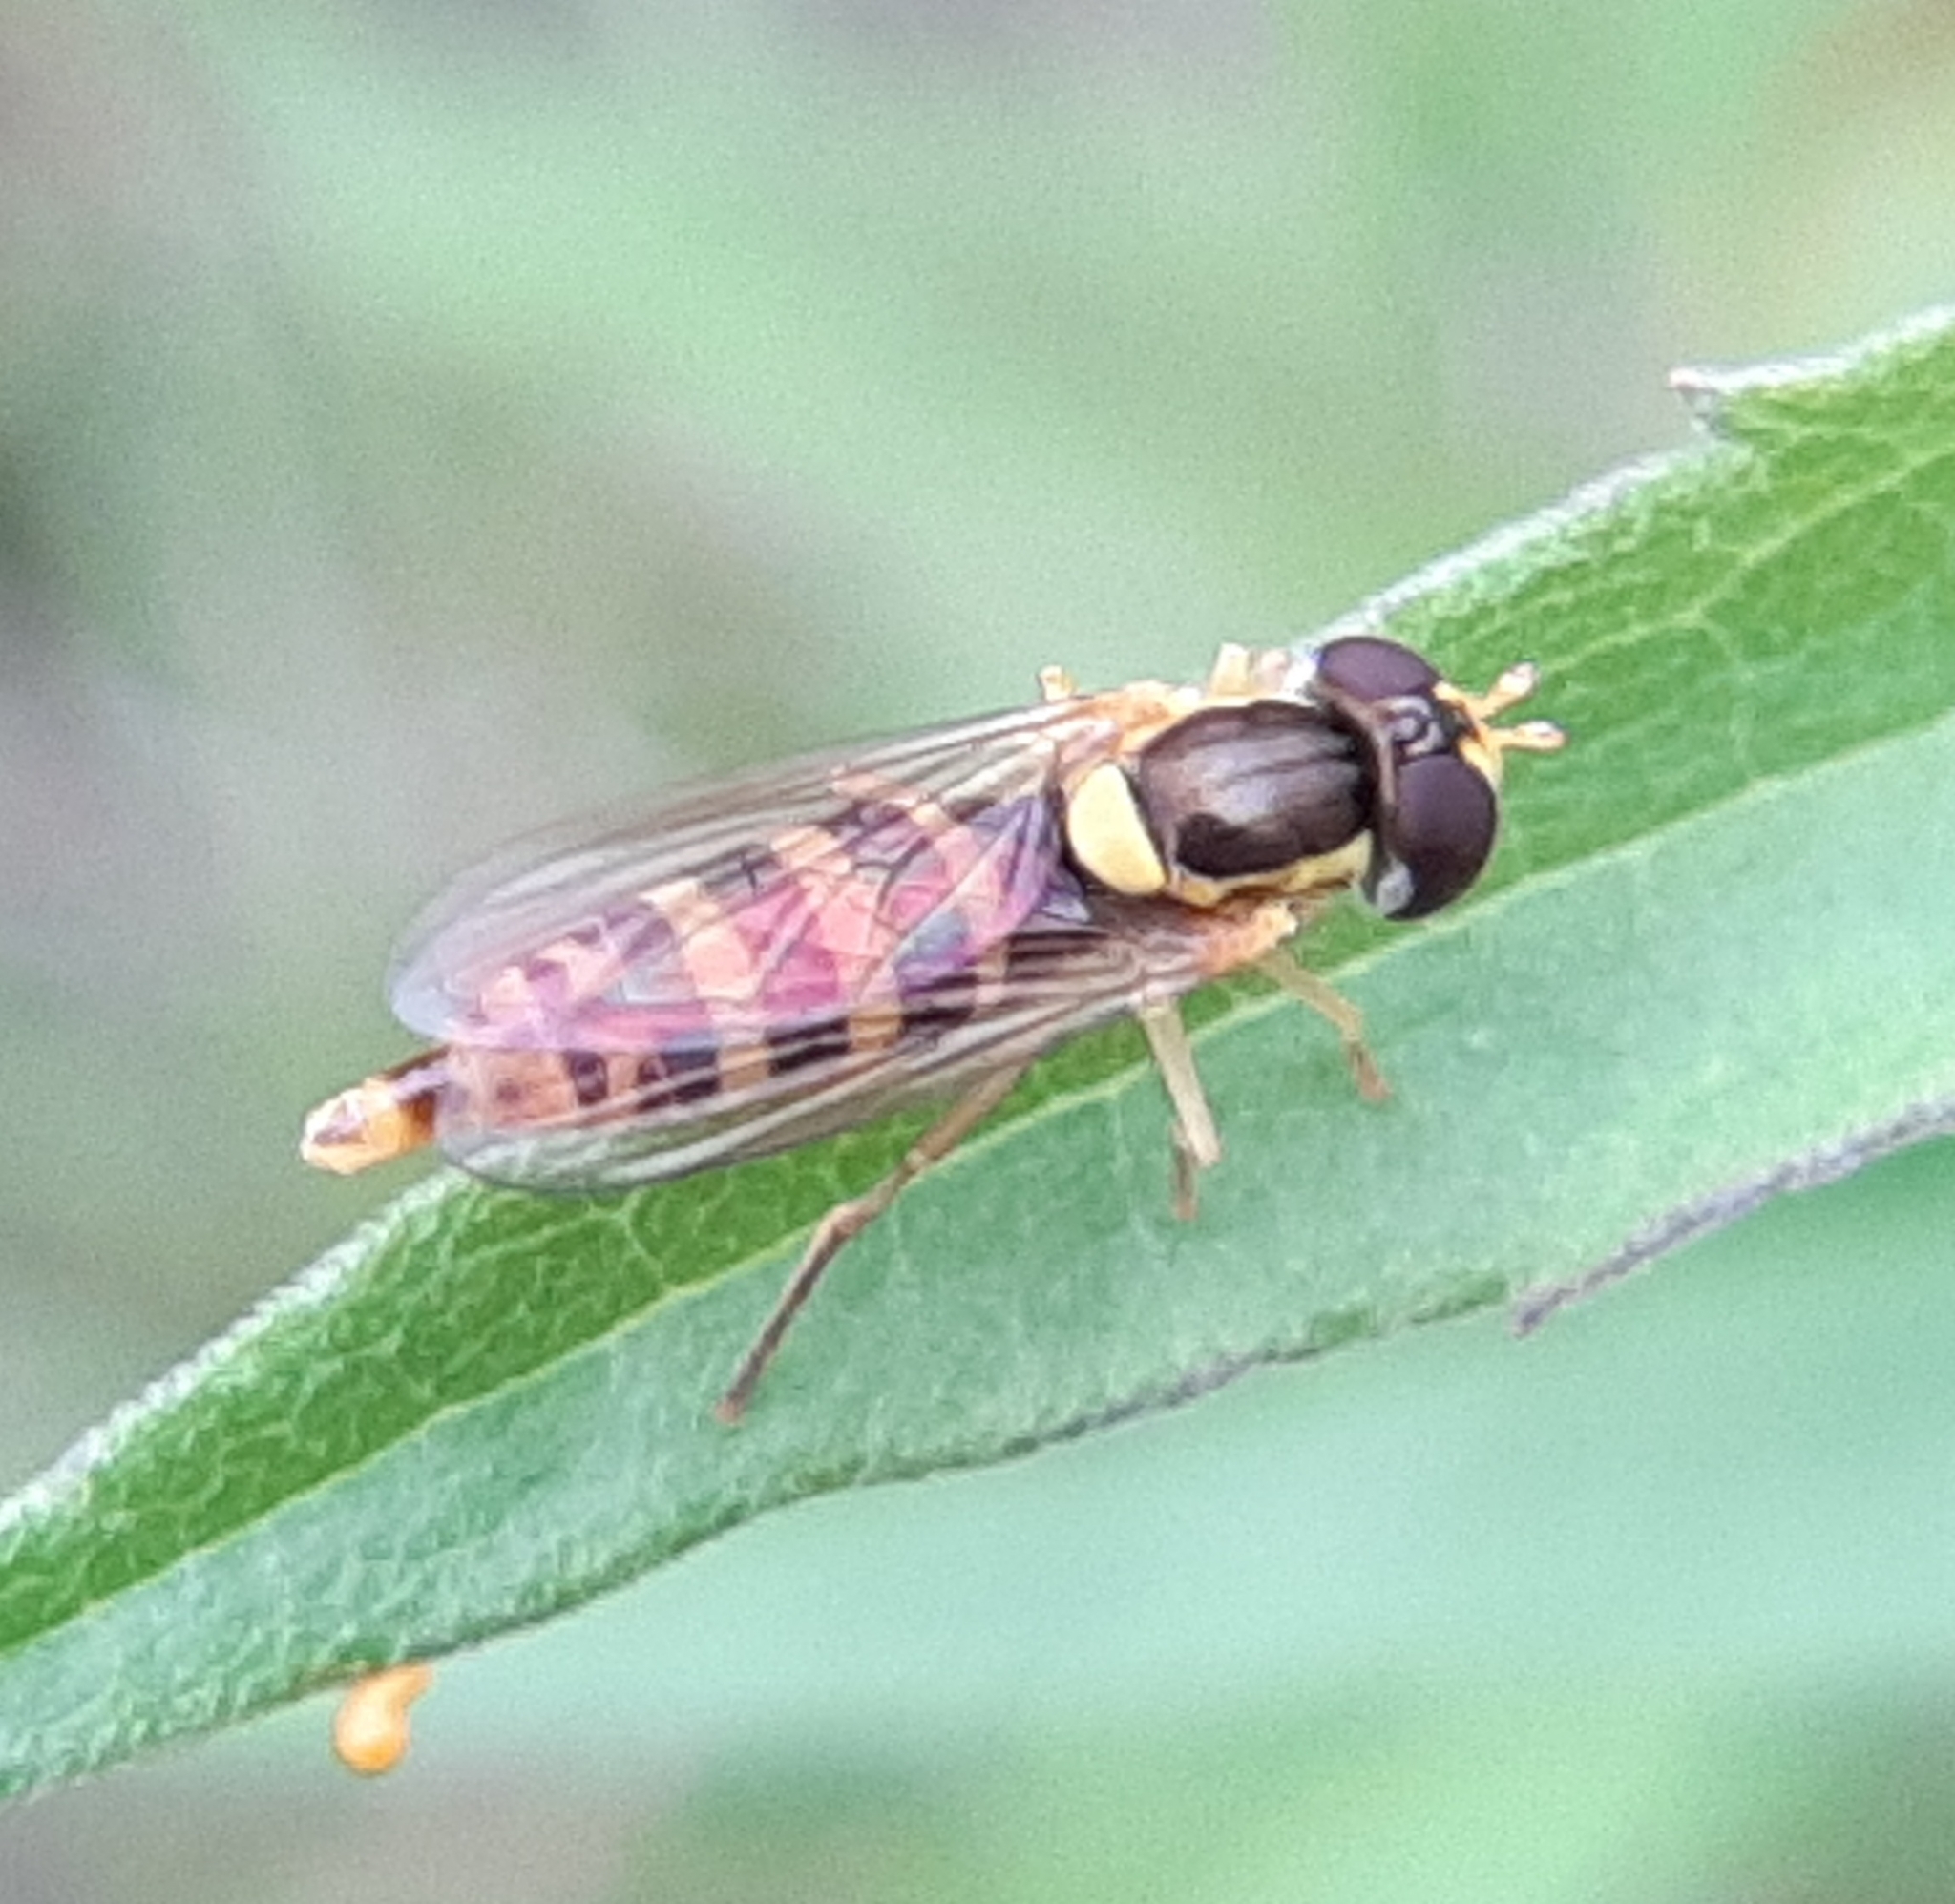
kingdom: Animalia
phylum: Arthropoda
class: Insecta
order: Diptera
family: Syrphidae
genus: Sphaerophoria
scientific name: Sphaerophoria
